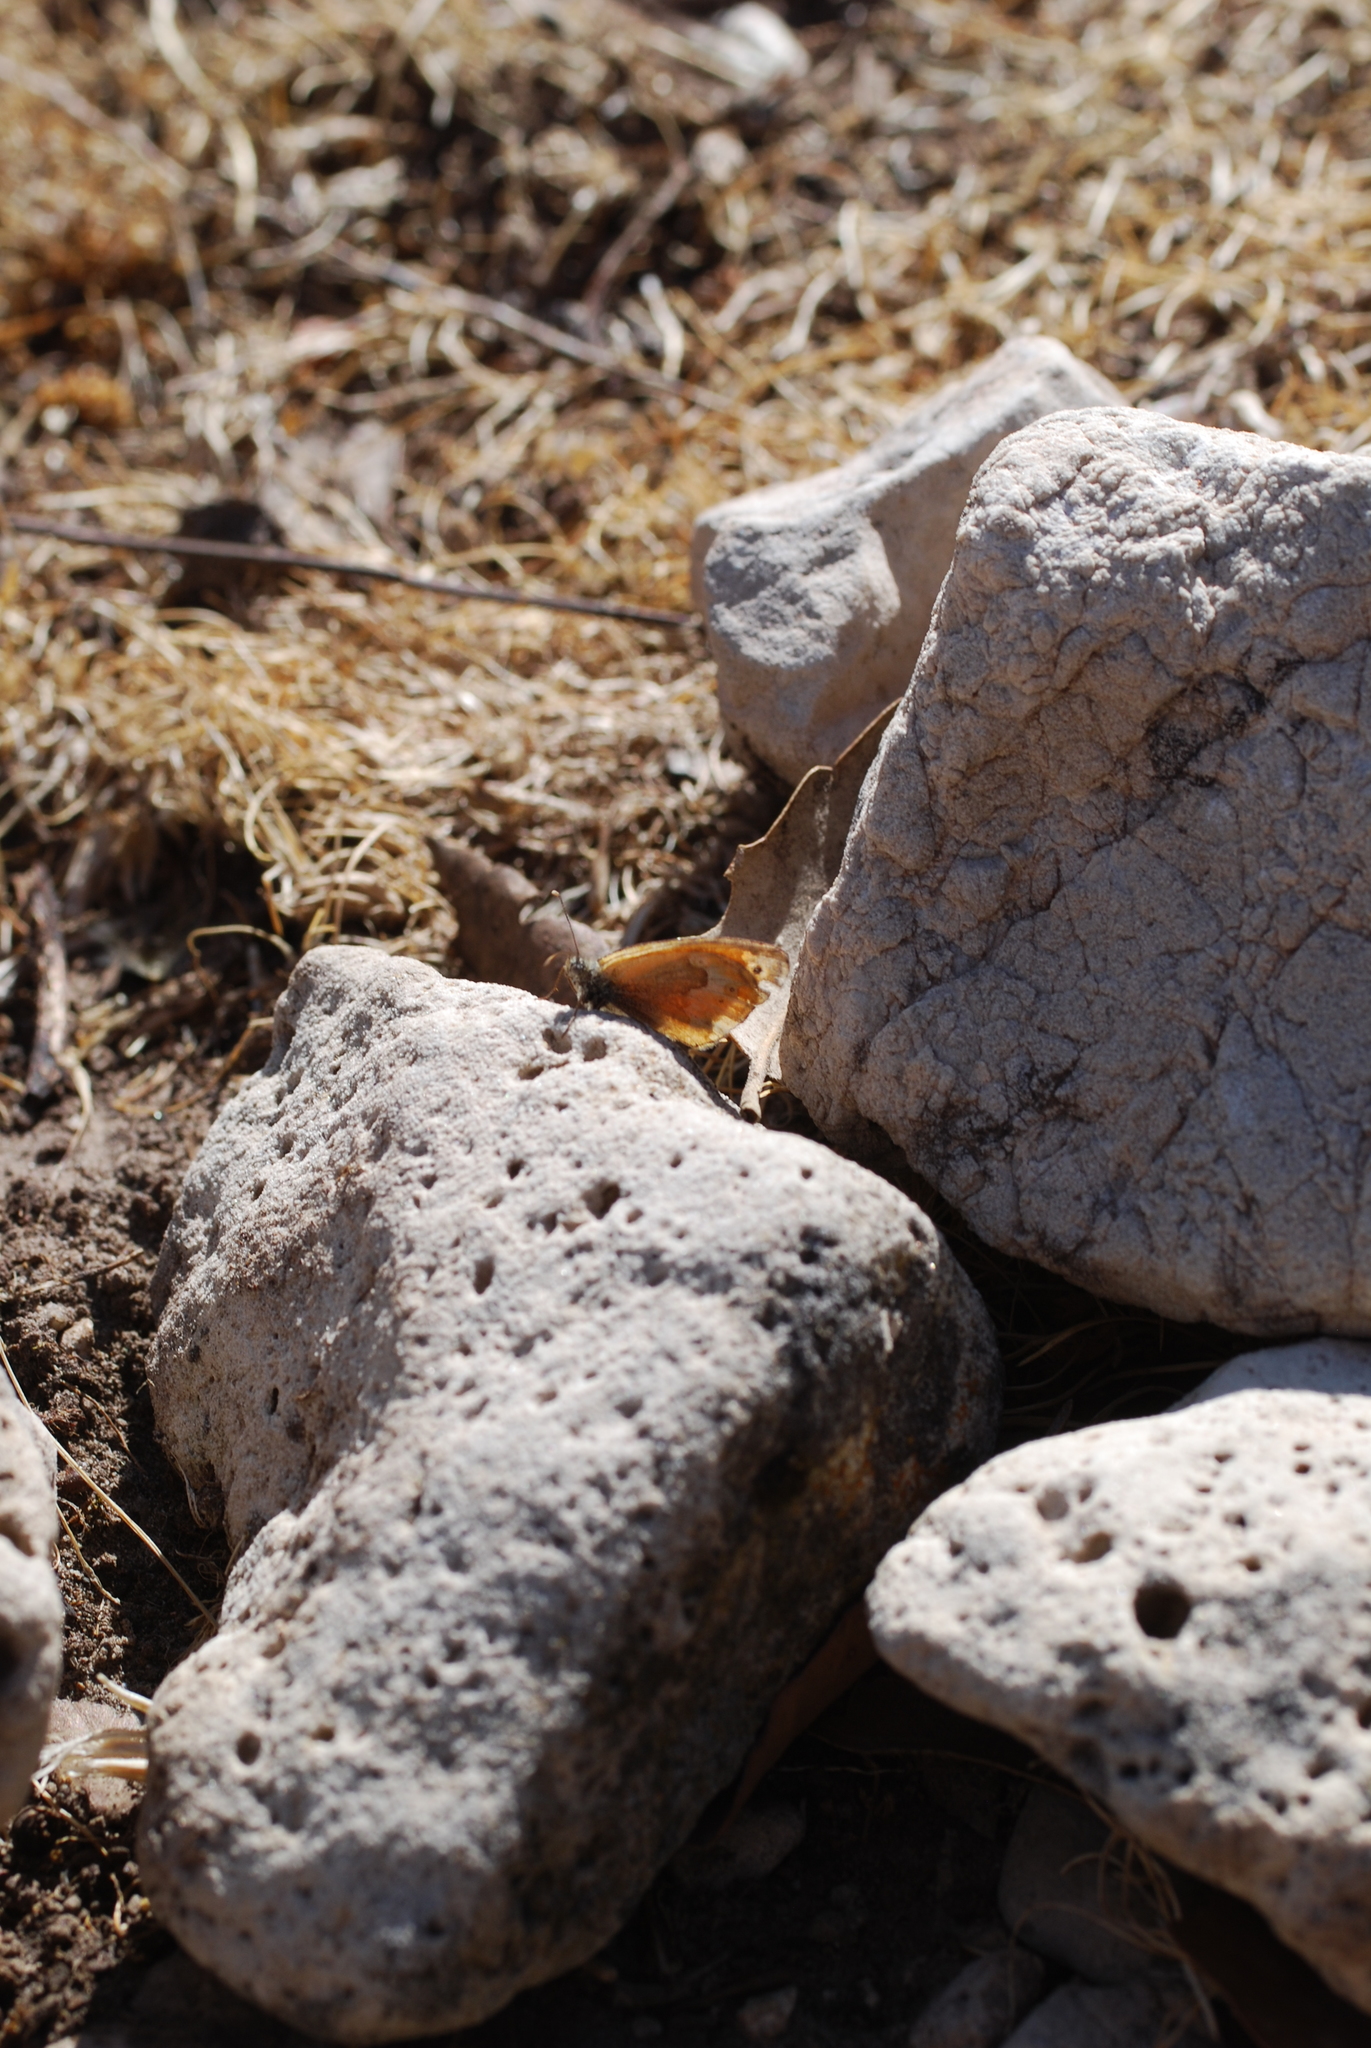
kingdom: Animalia
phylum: Arthropoda
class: Insecta
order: Lepidoptera
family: Nymphalidae
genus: Coenonympha
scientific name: Coenonympha corinna
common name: Corsican heath
